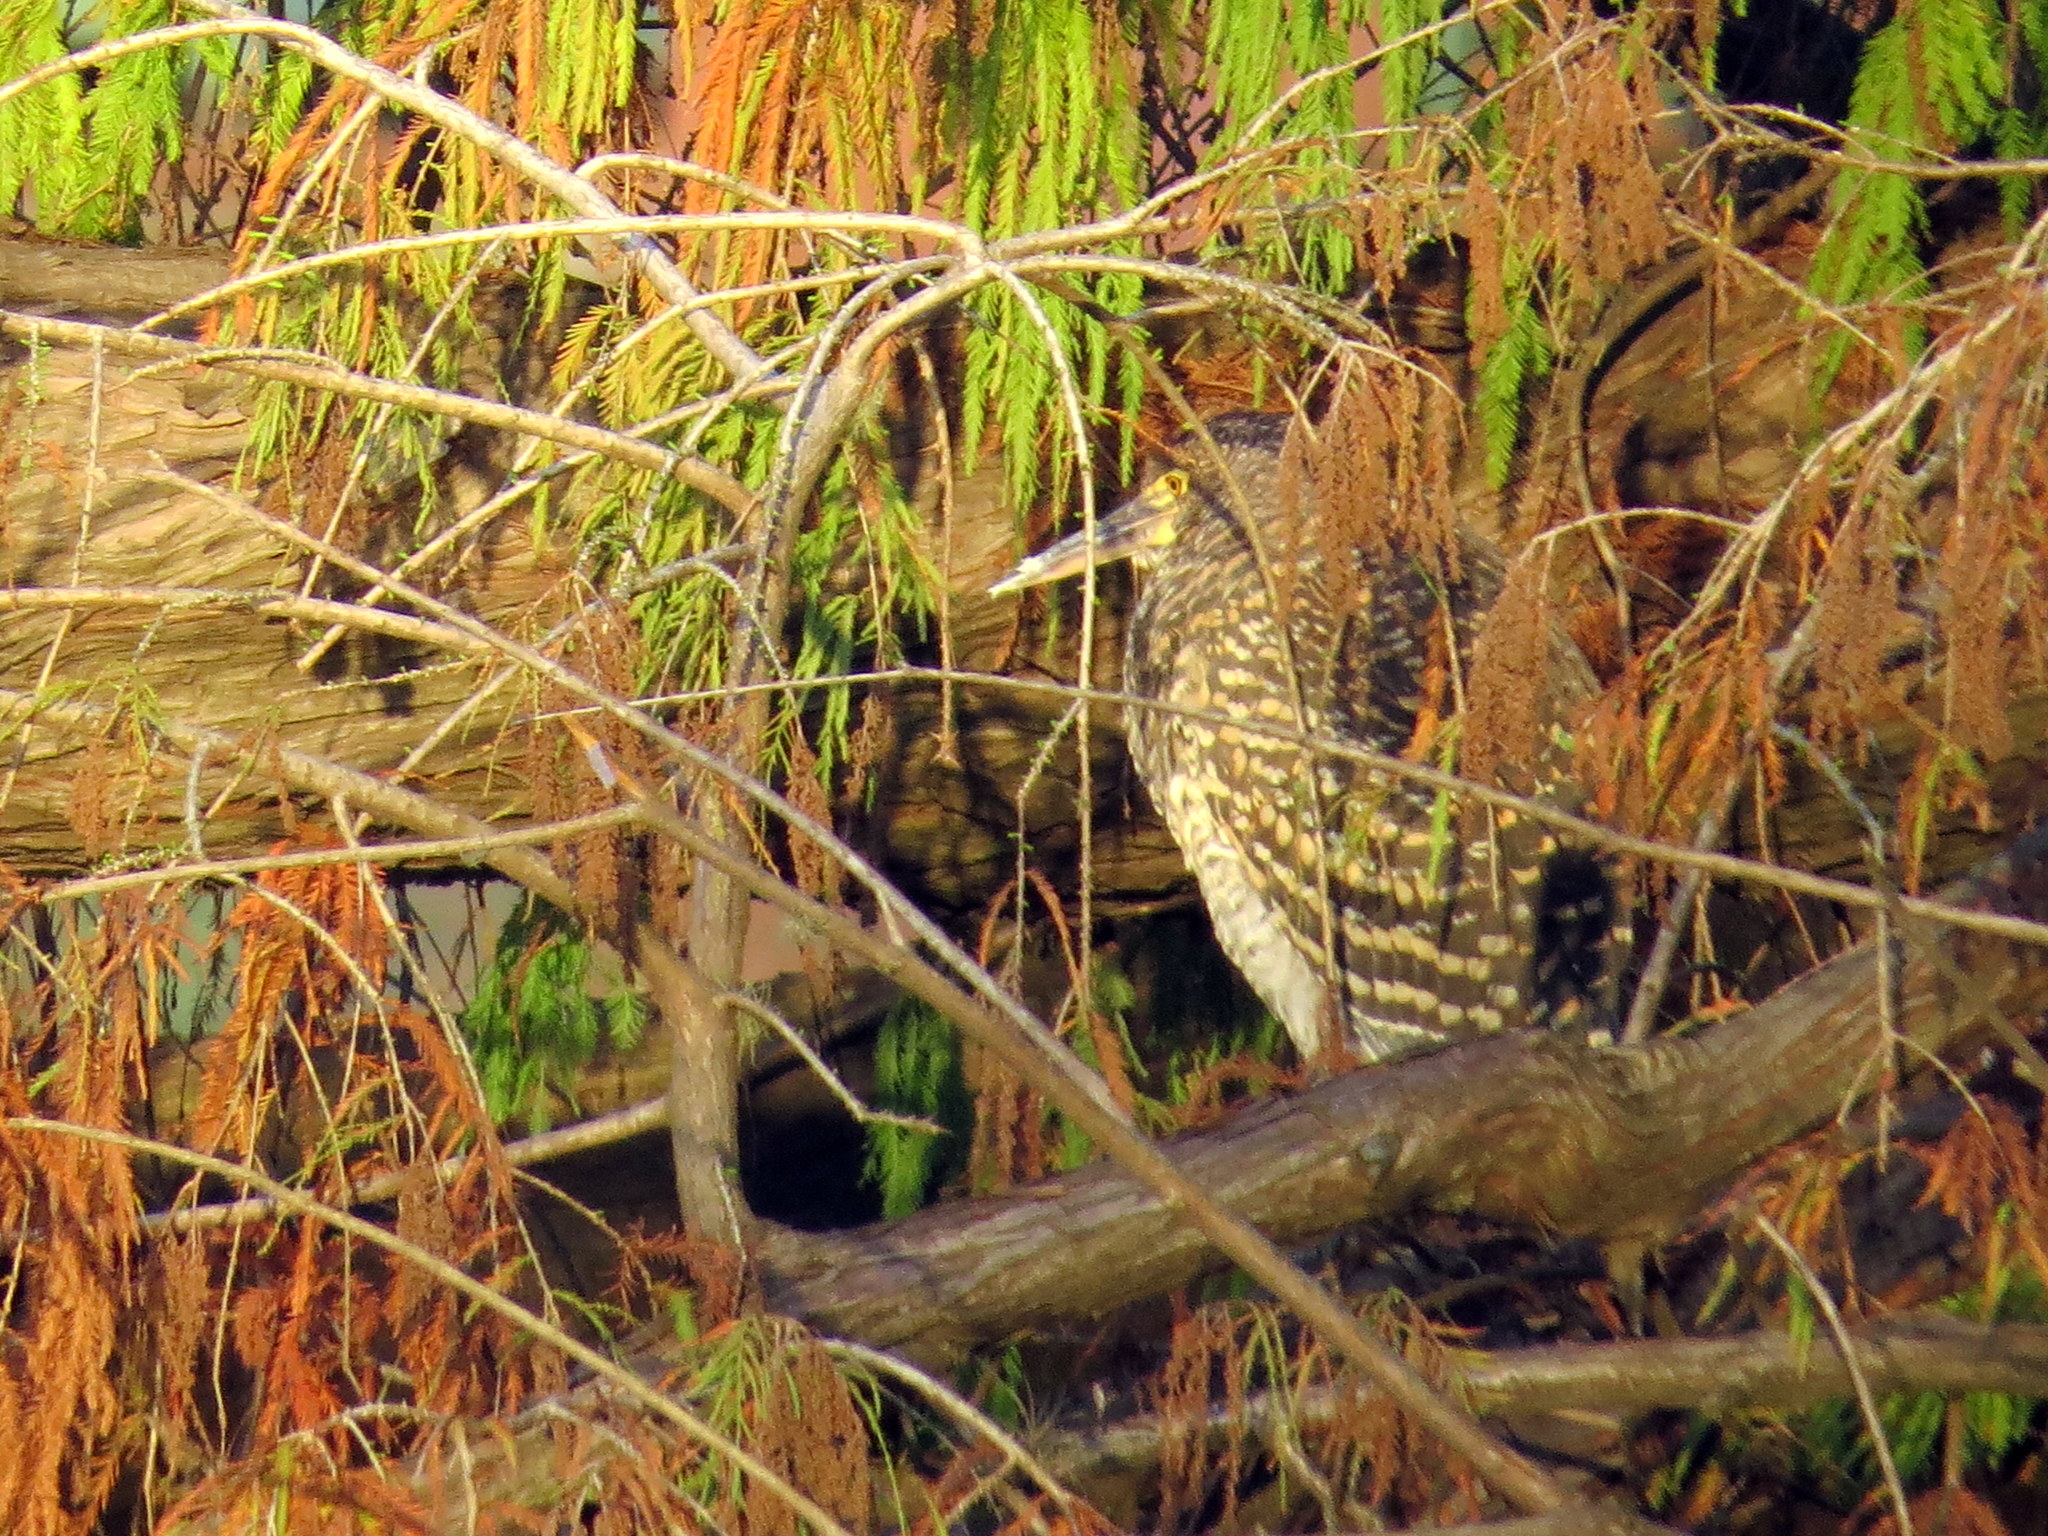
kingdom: Animalia
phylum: Chordata
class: Aves
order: Pelecaniformes
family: Ardeidae
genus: Tigrisoma
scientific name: Tigrisoma lineatum
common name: Rufescent tiger-heron
